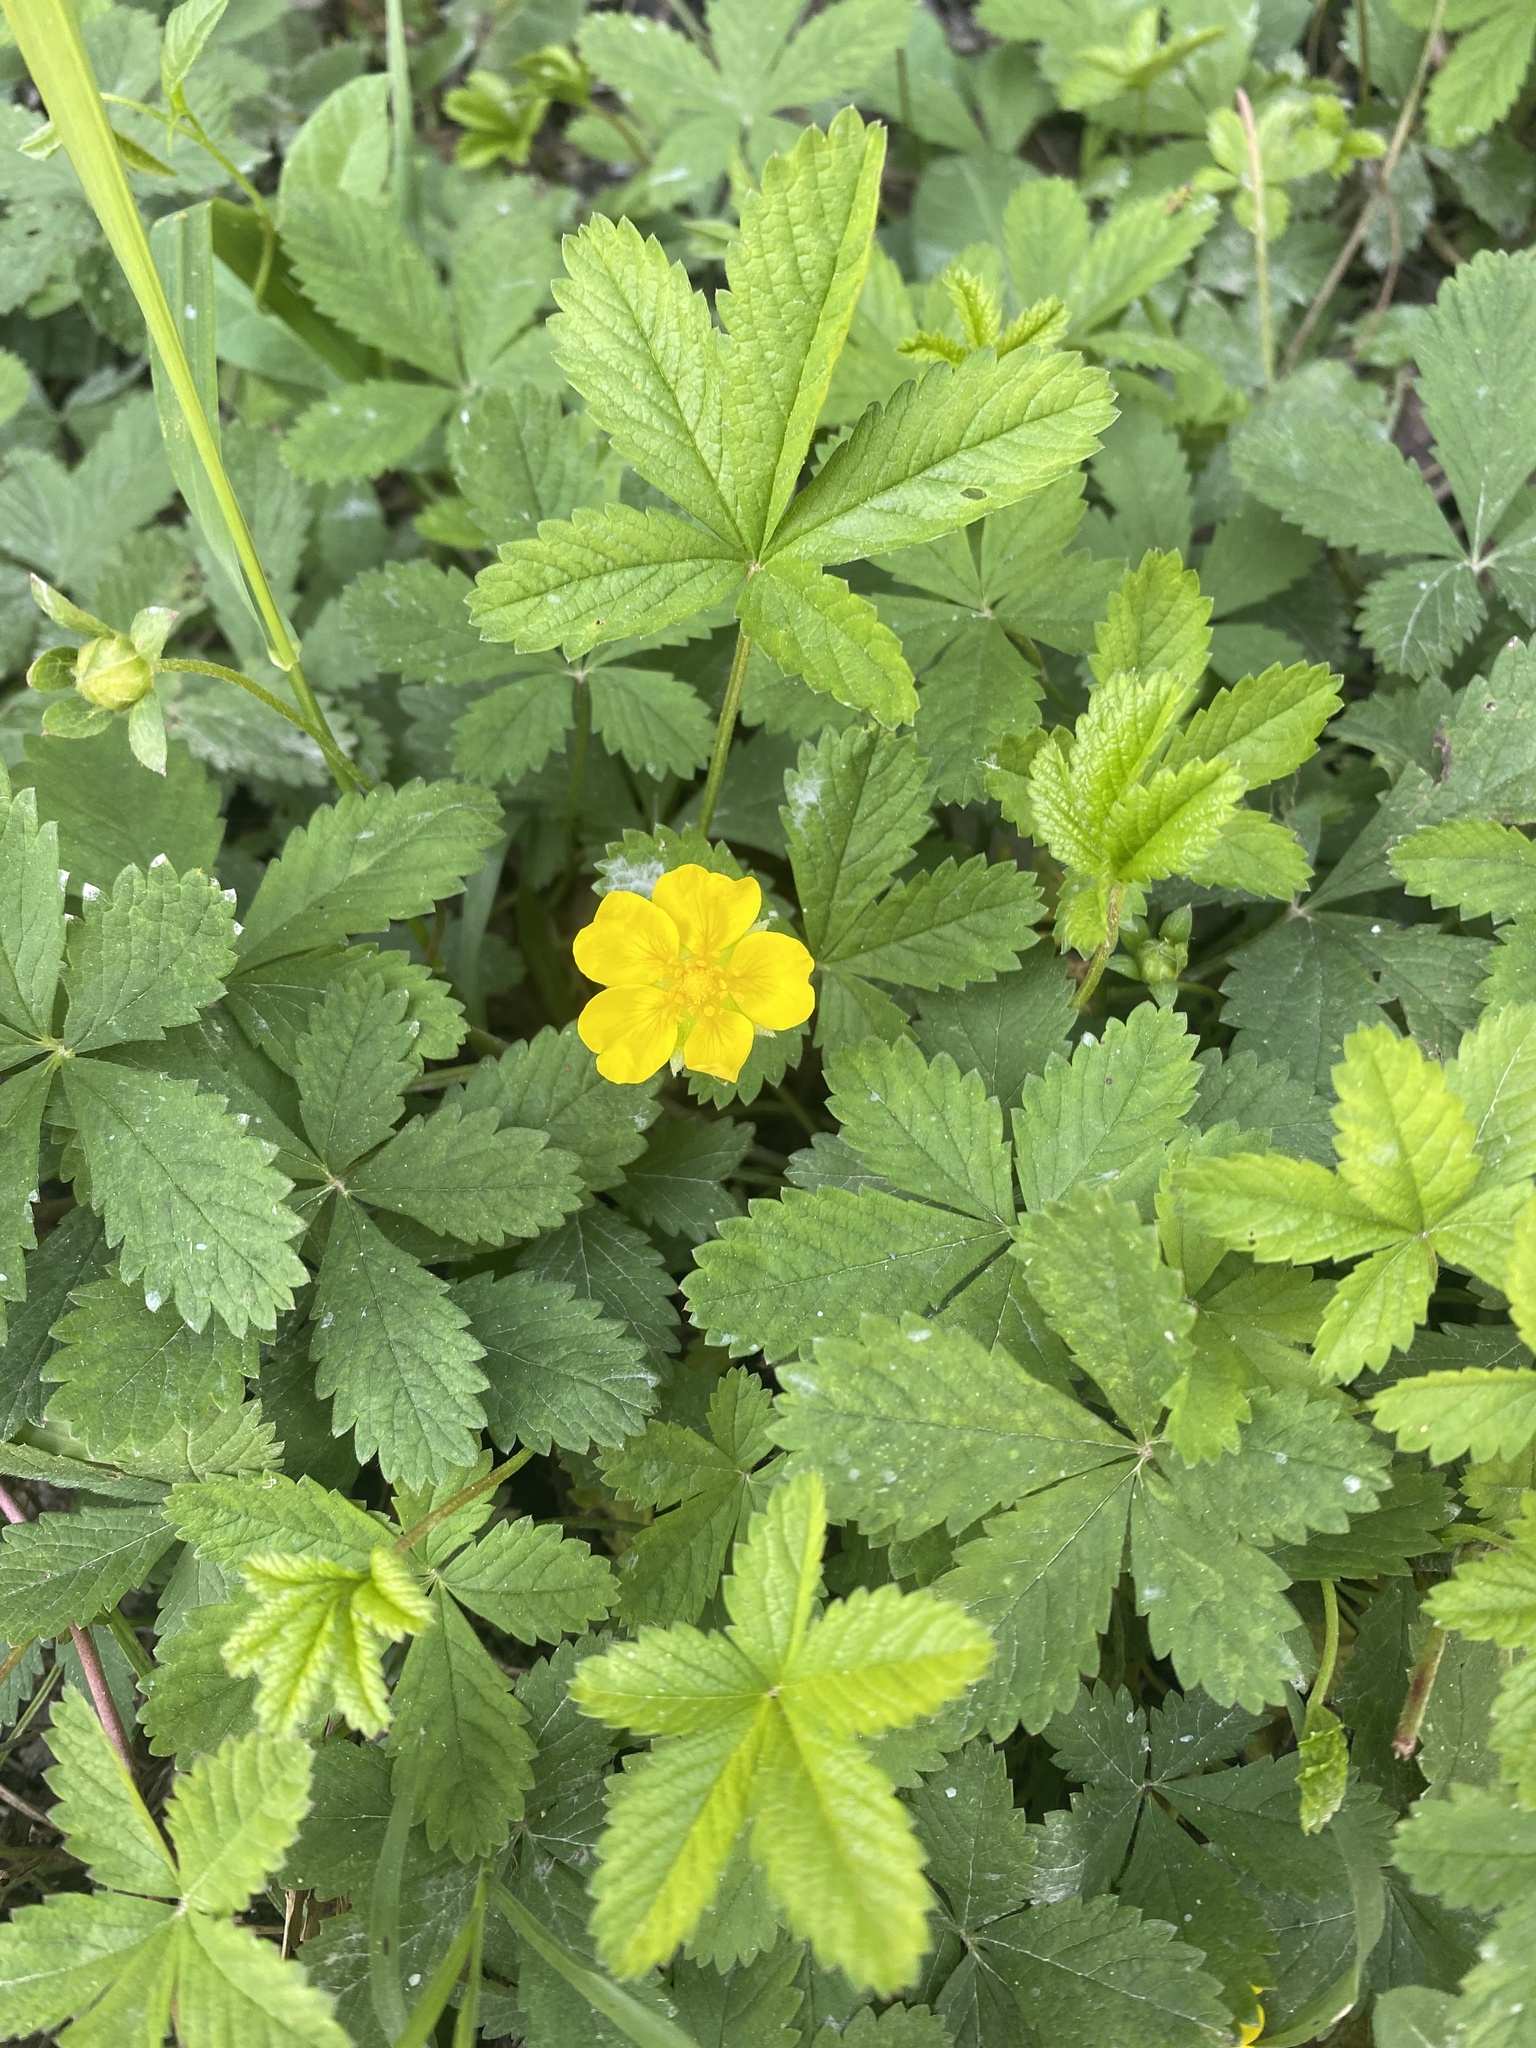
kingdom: Plantae
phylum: Tracheophyta
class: Magnoliopsida
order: Rosales
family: Rosaceae
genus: Potentilla
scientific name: Potentilla reptans
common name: Creeping cinquefoil
